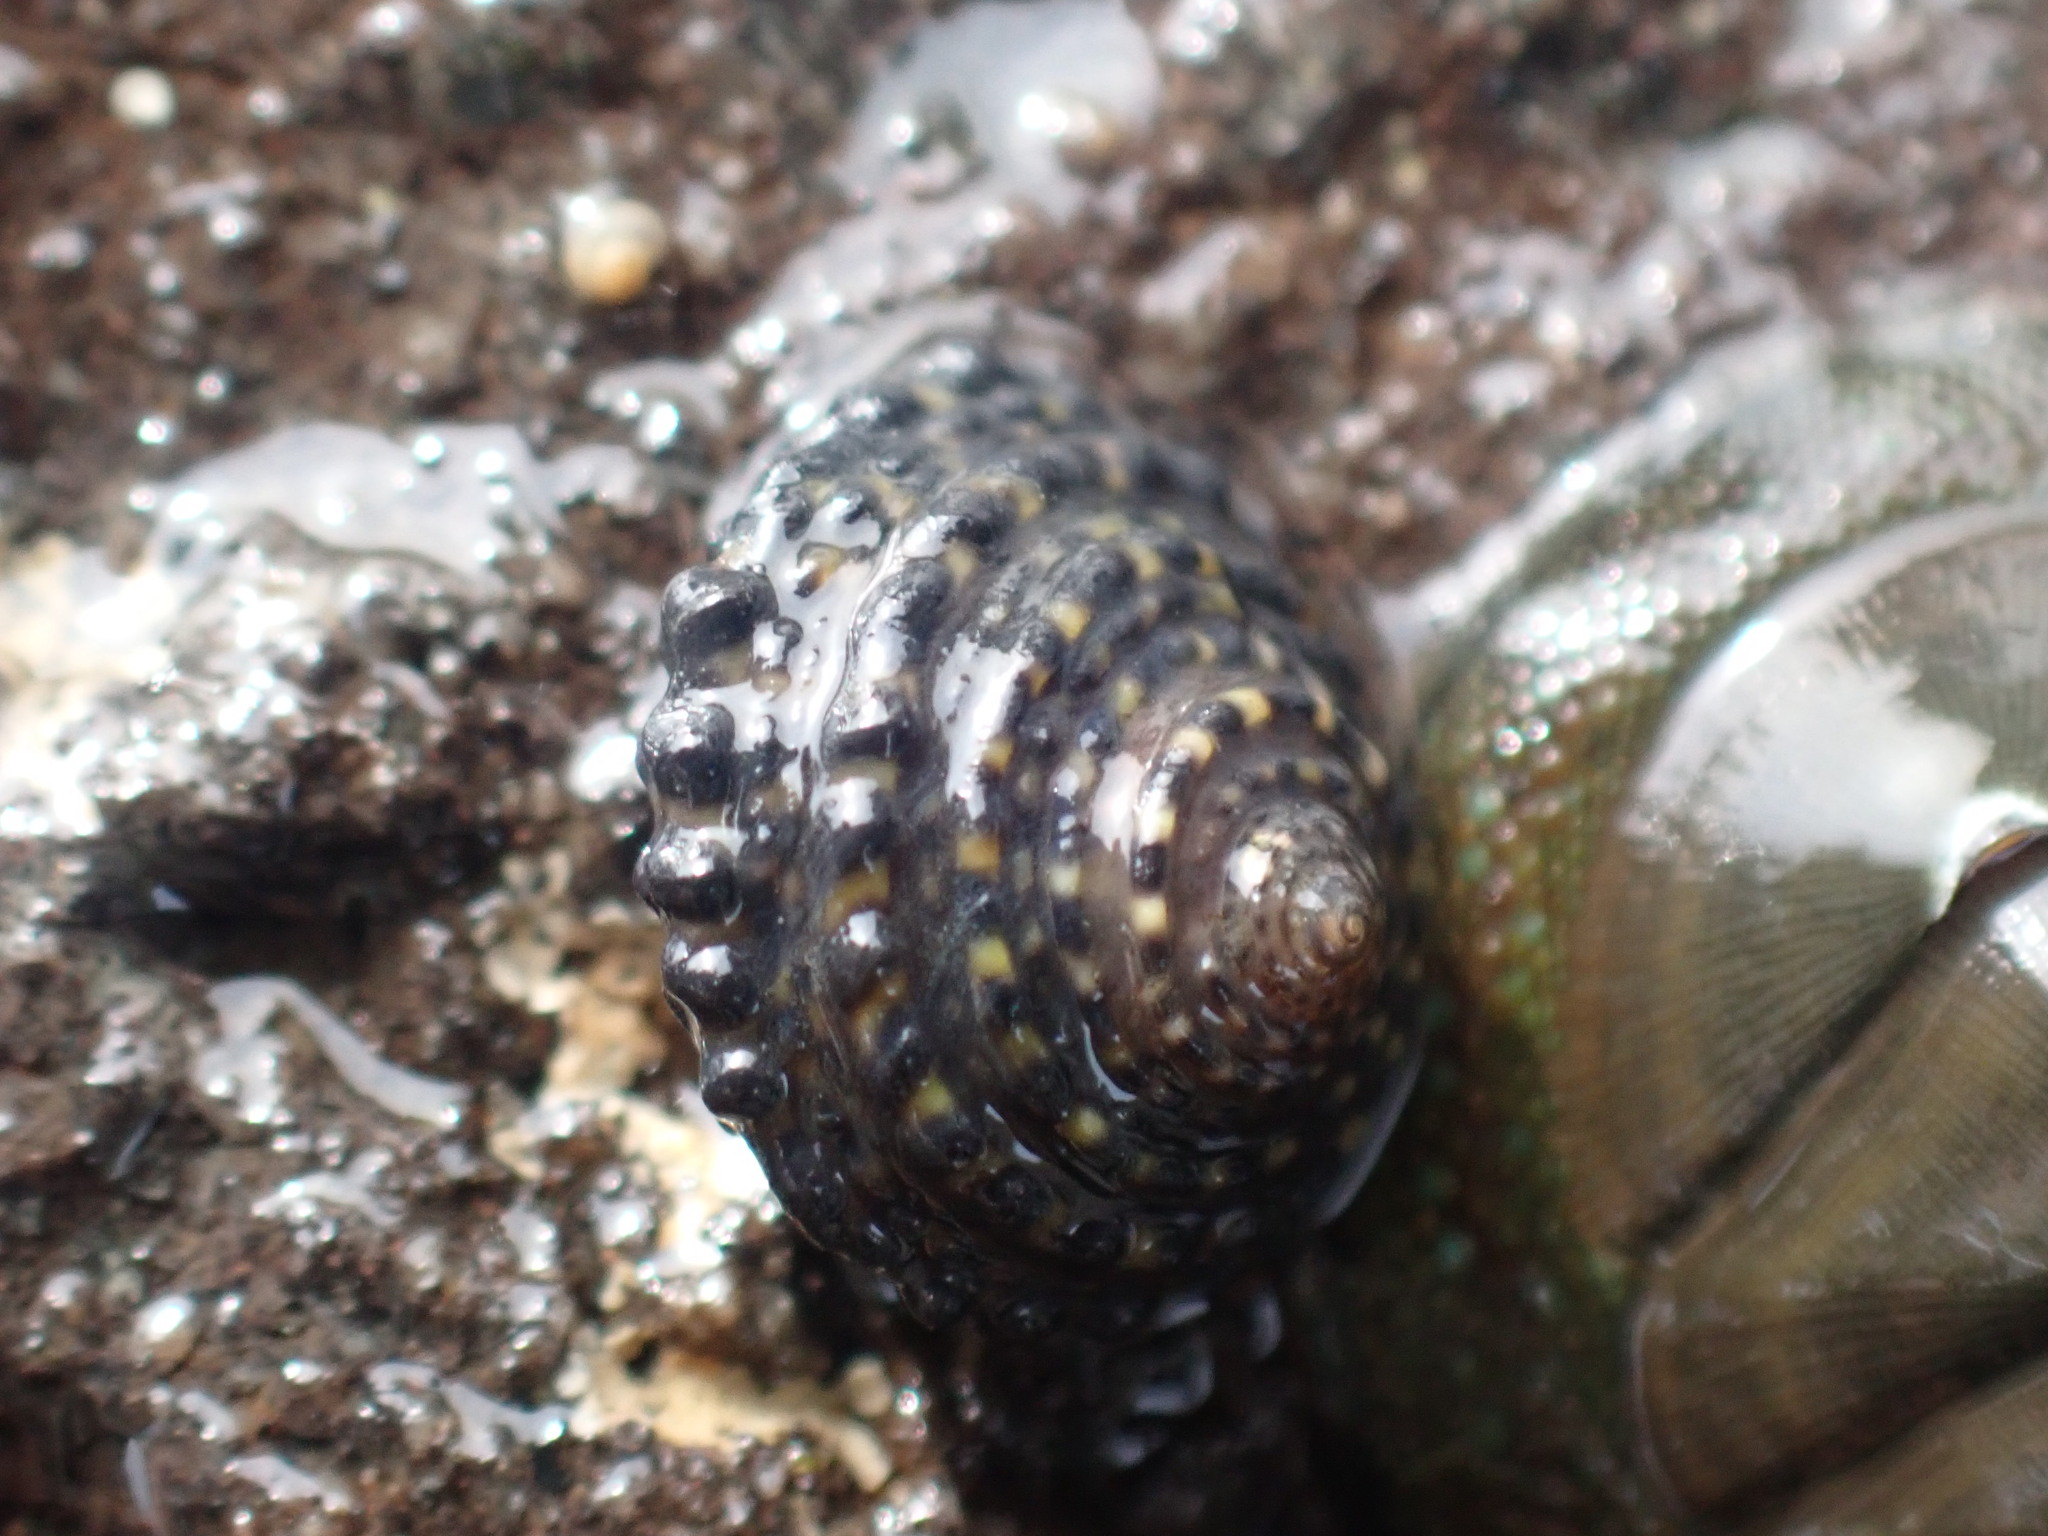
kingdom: Animalia
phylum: Mollusca
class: Gastropoda
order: Trochida
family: Trochidae
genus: Diloma
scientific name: Diloma bicanaliculatum
